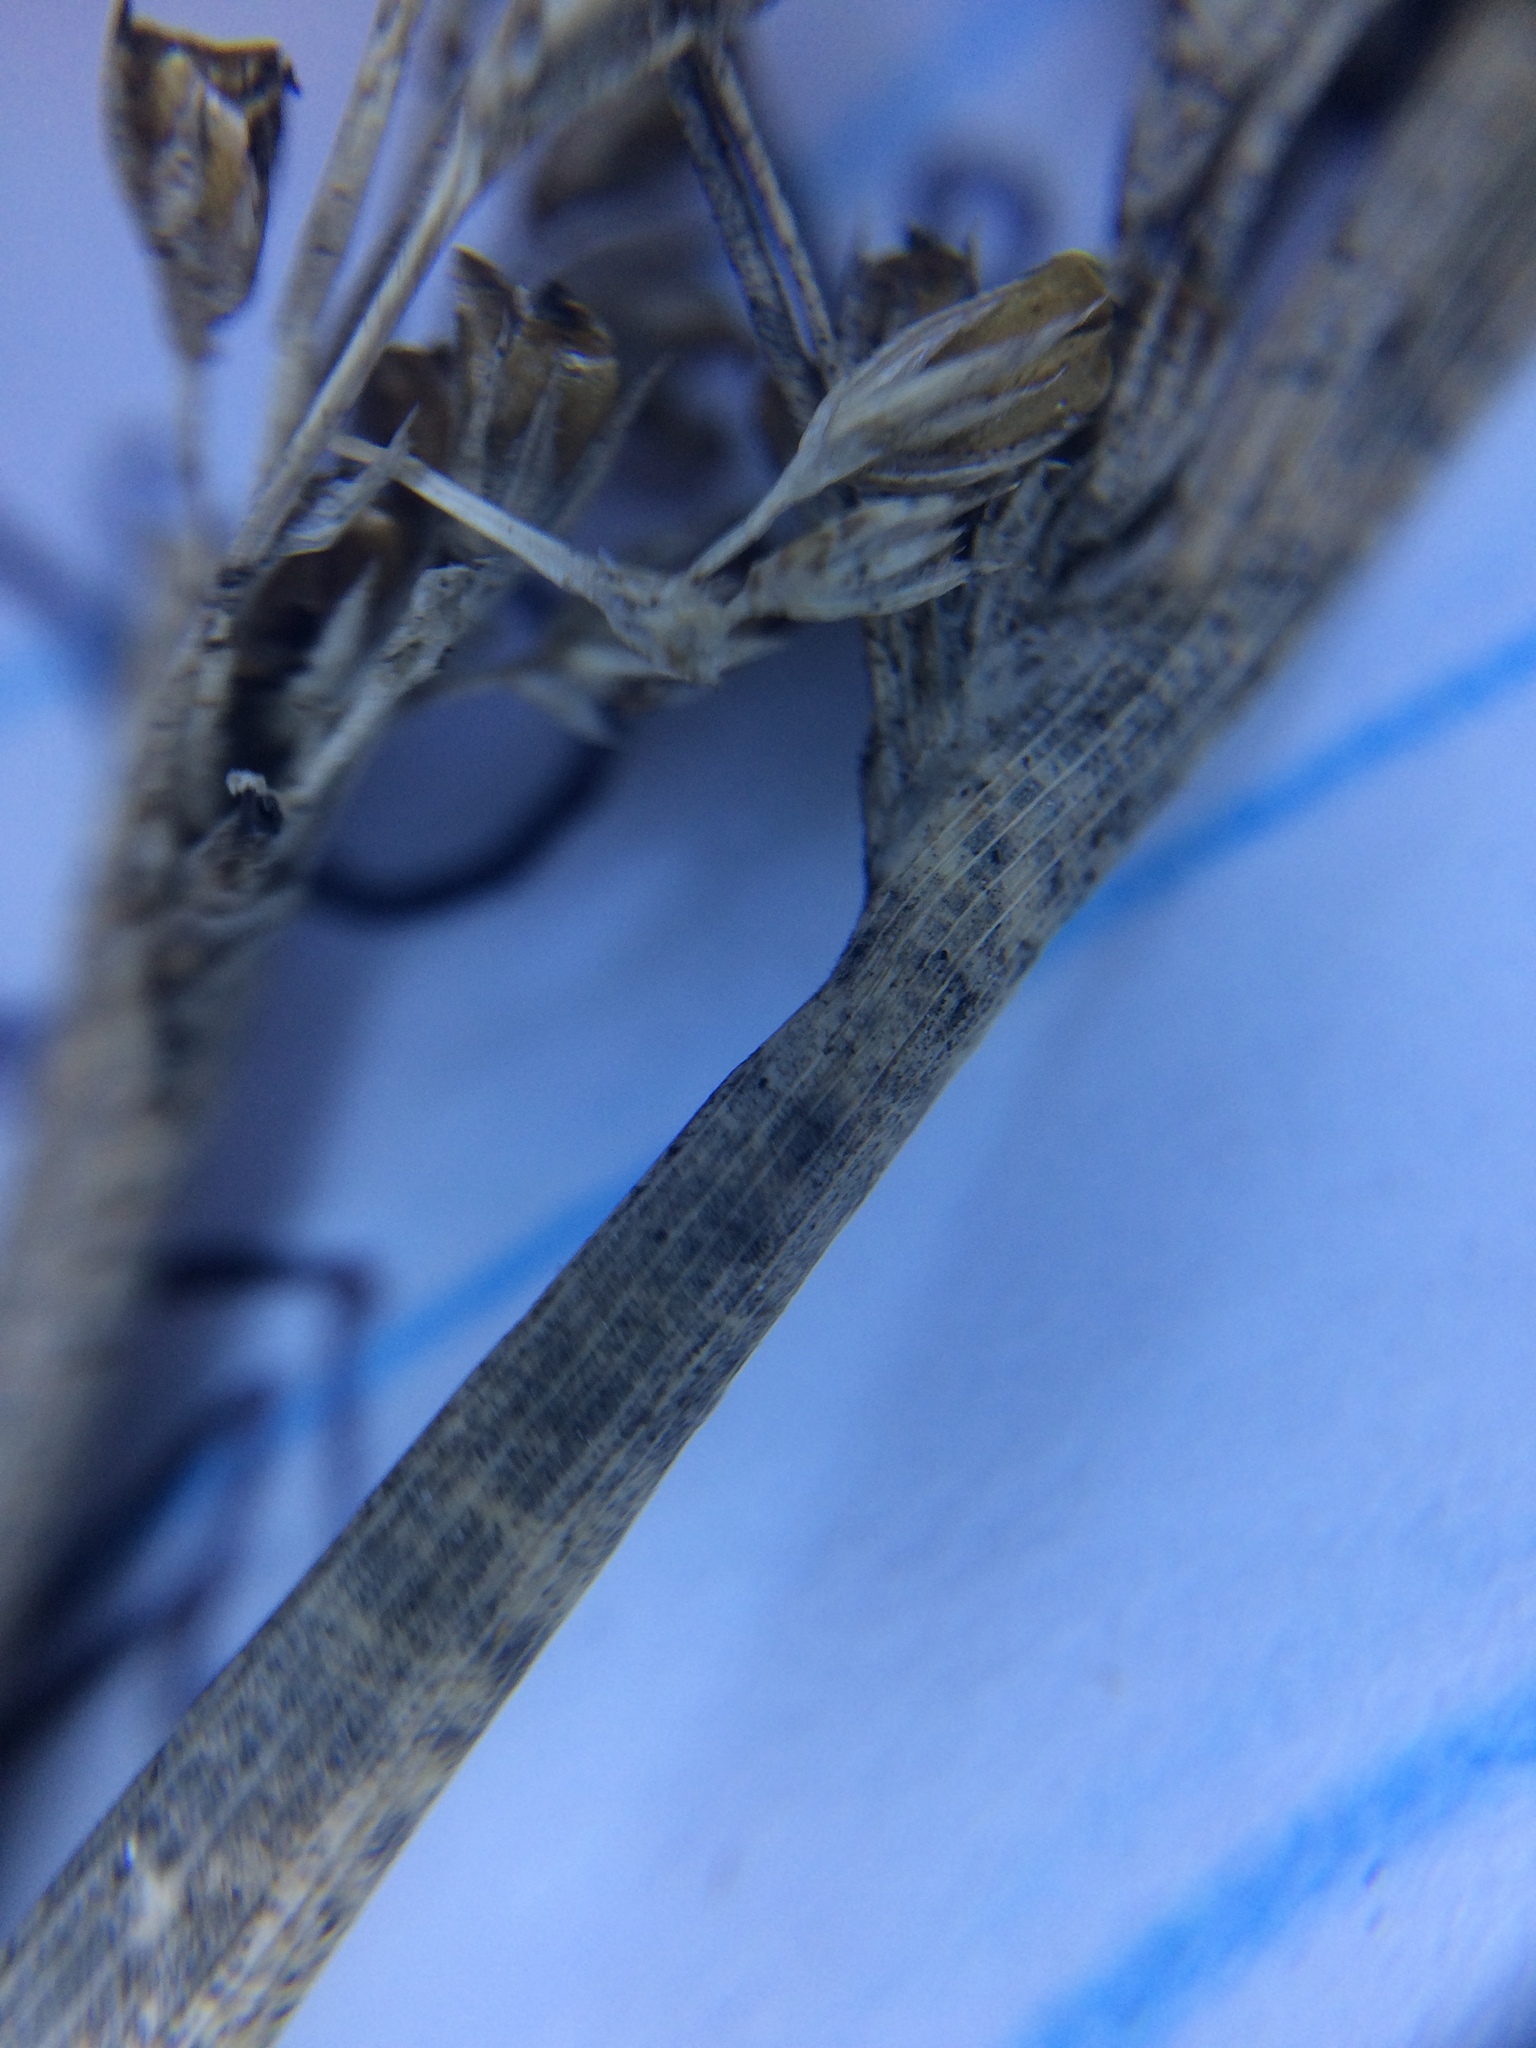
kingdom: Plantae
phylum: Tracheophyta
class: Liliopsida
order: Poales
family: Juncaceae
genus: Juncus
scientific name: Juncus pylaei
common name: Common rush
